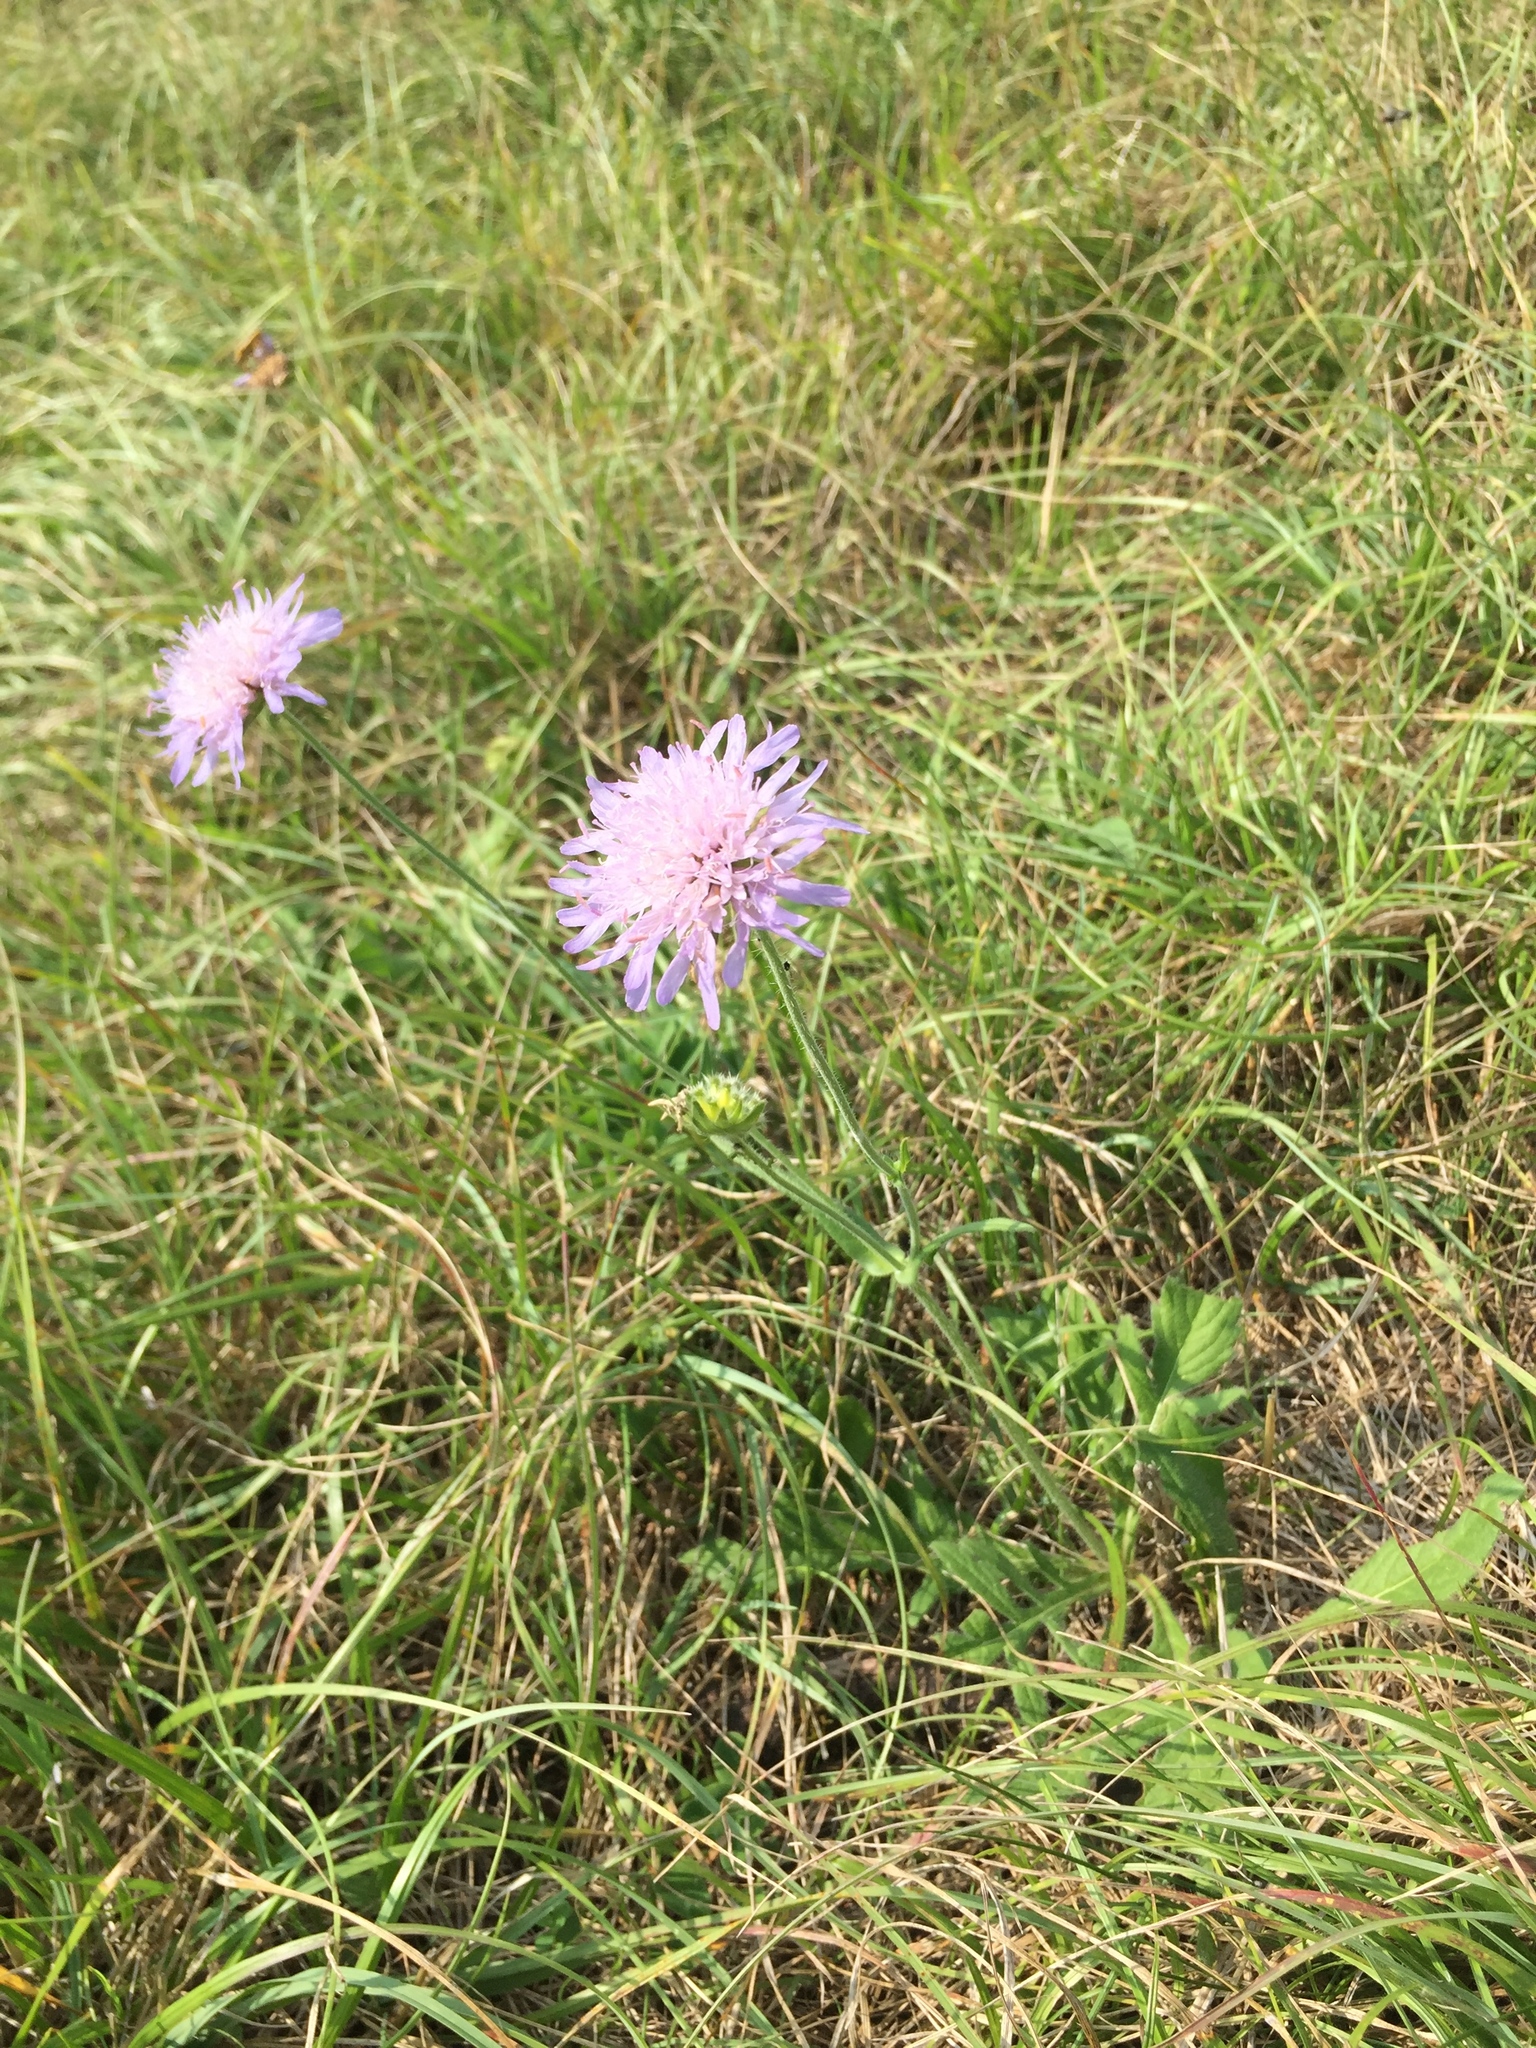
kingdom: Plantae
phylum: Tracheophyta
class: Magnoliopsida
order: Dipsacales
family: Caprifoliaceae
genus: Knautia
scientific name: Knautia arvensis
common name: Field scabiosa
